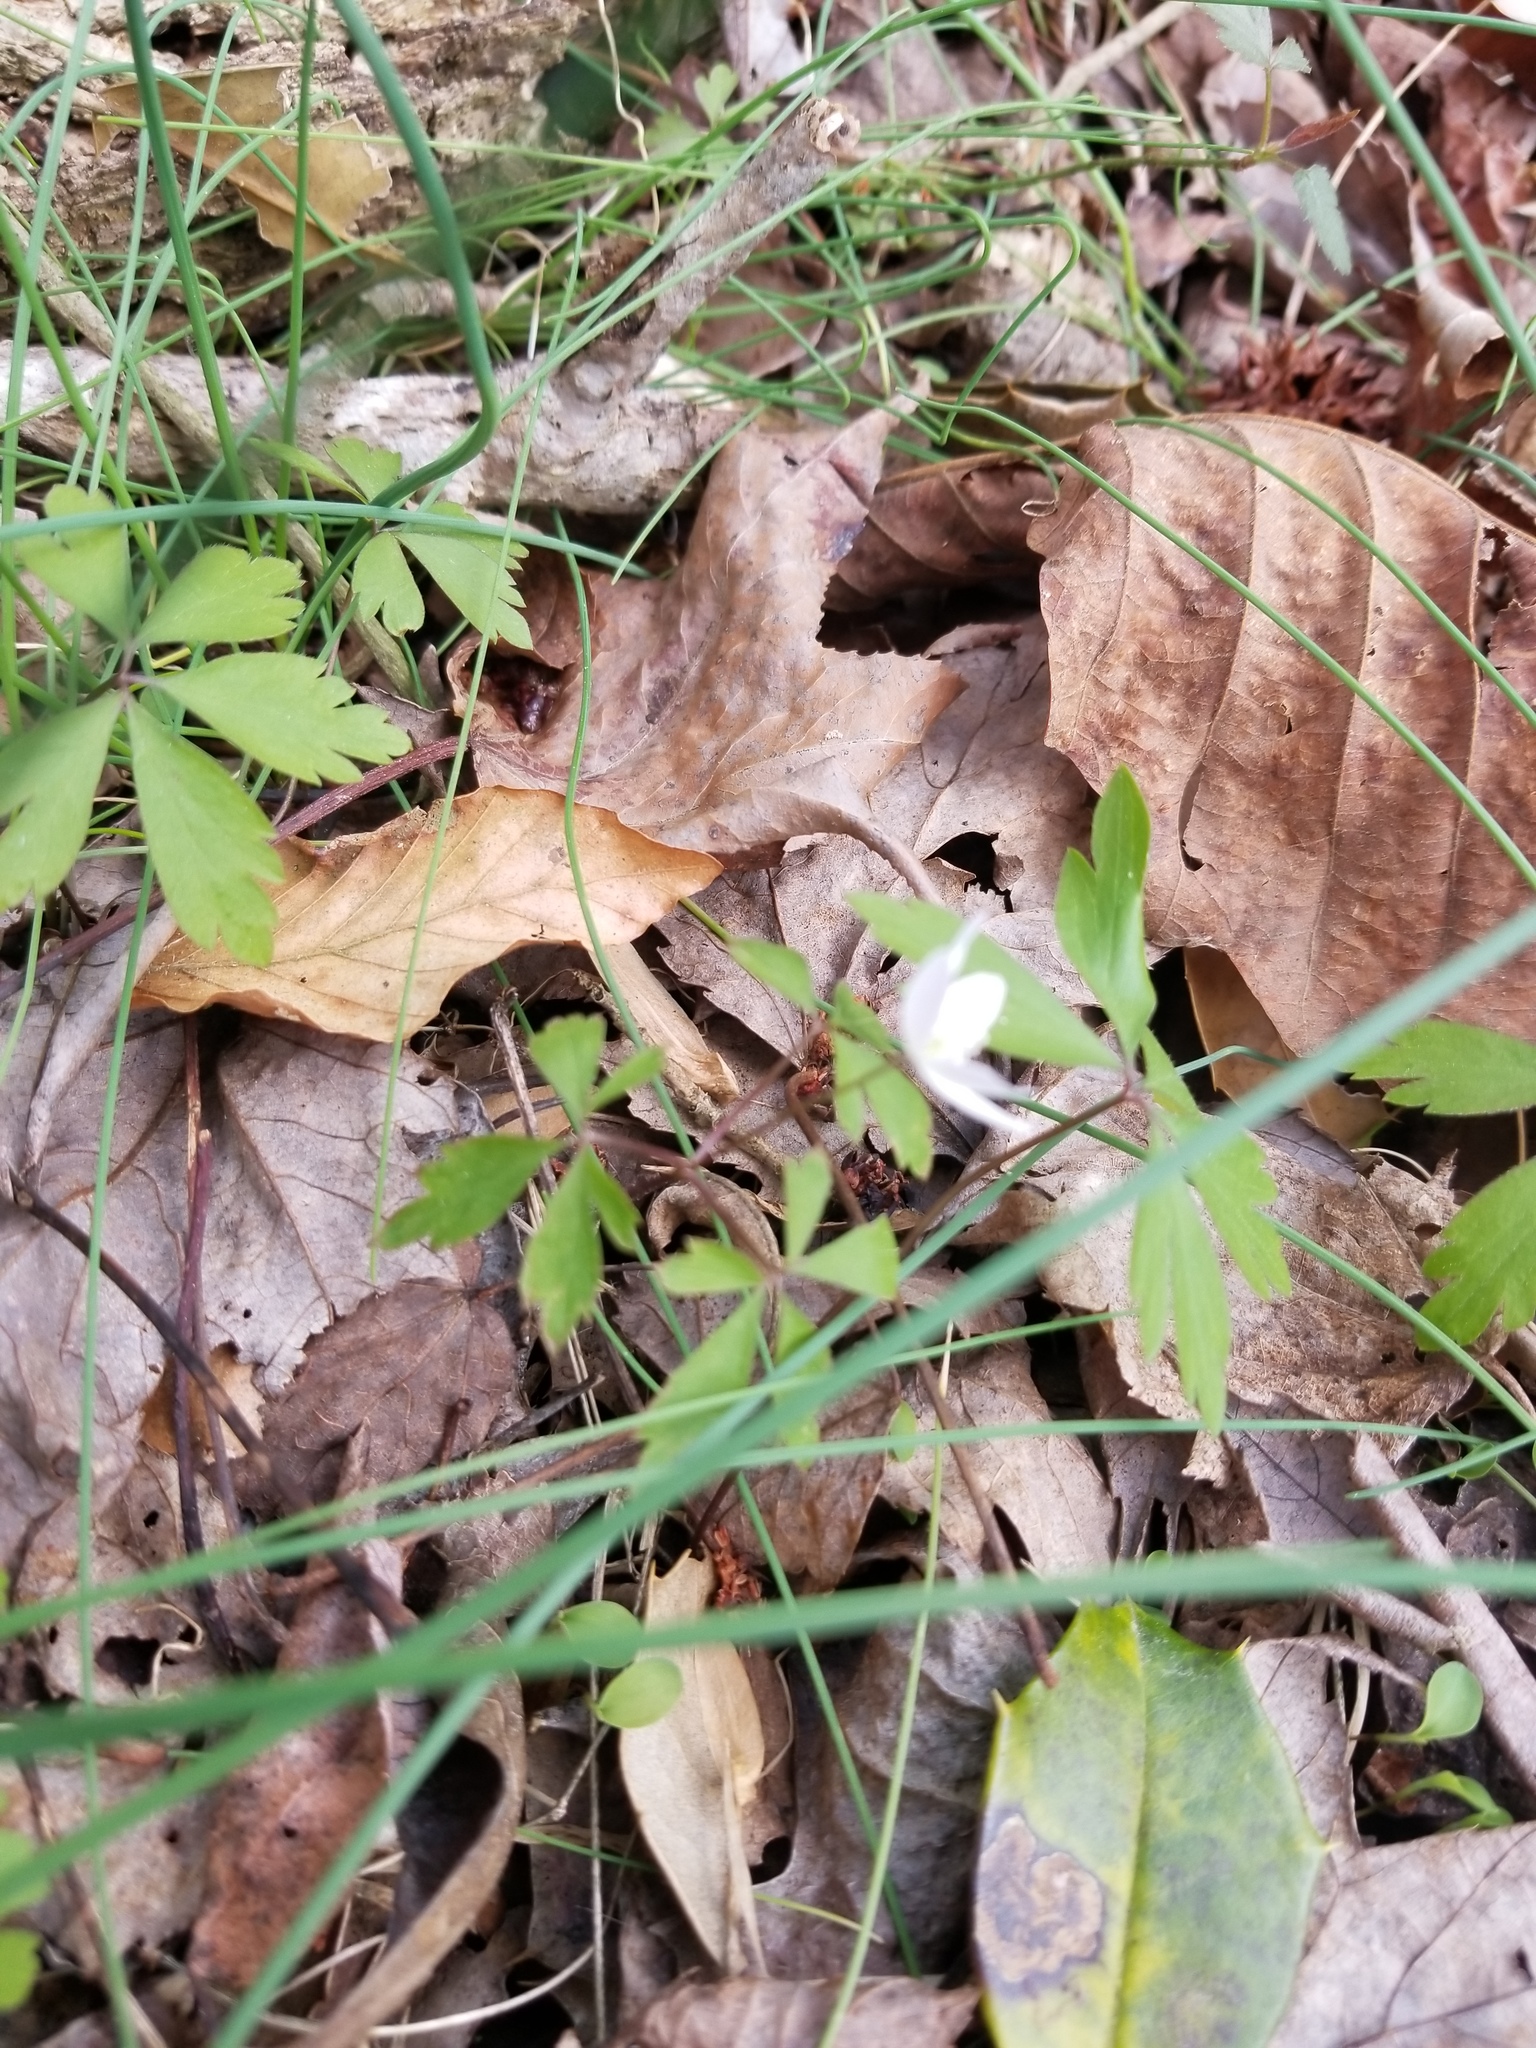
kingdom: Plantae
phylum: Tracheophyta
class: Magnoliopsida
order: Ranunculales
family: Ranunculaceae
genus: Anemone
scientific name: Anemone quinquefolia
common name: Wood anemone
